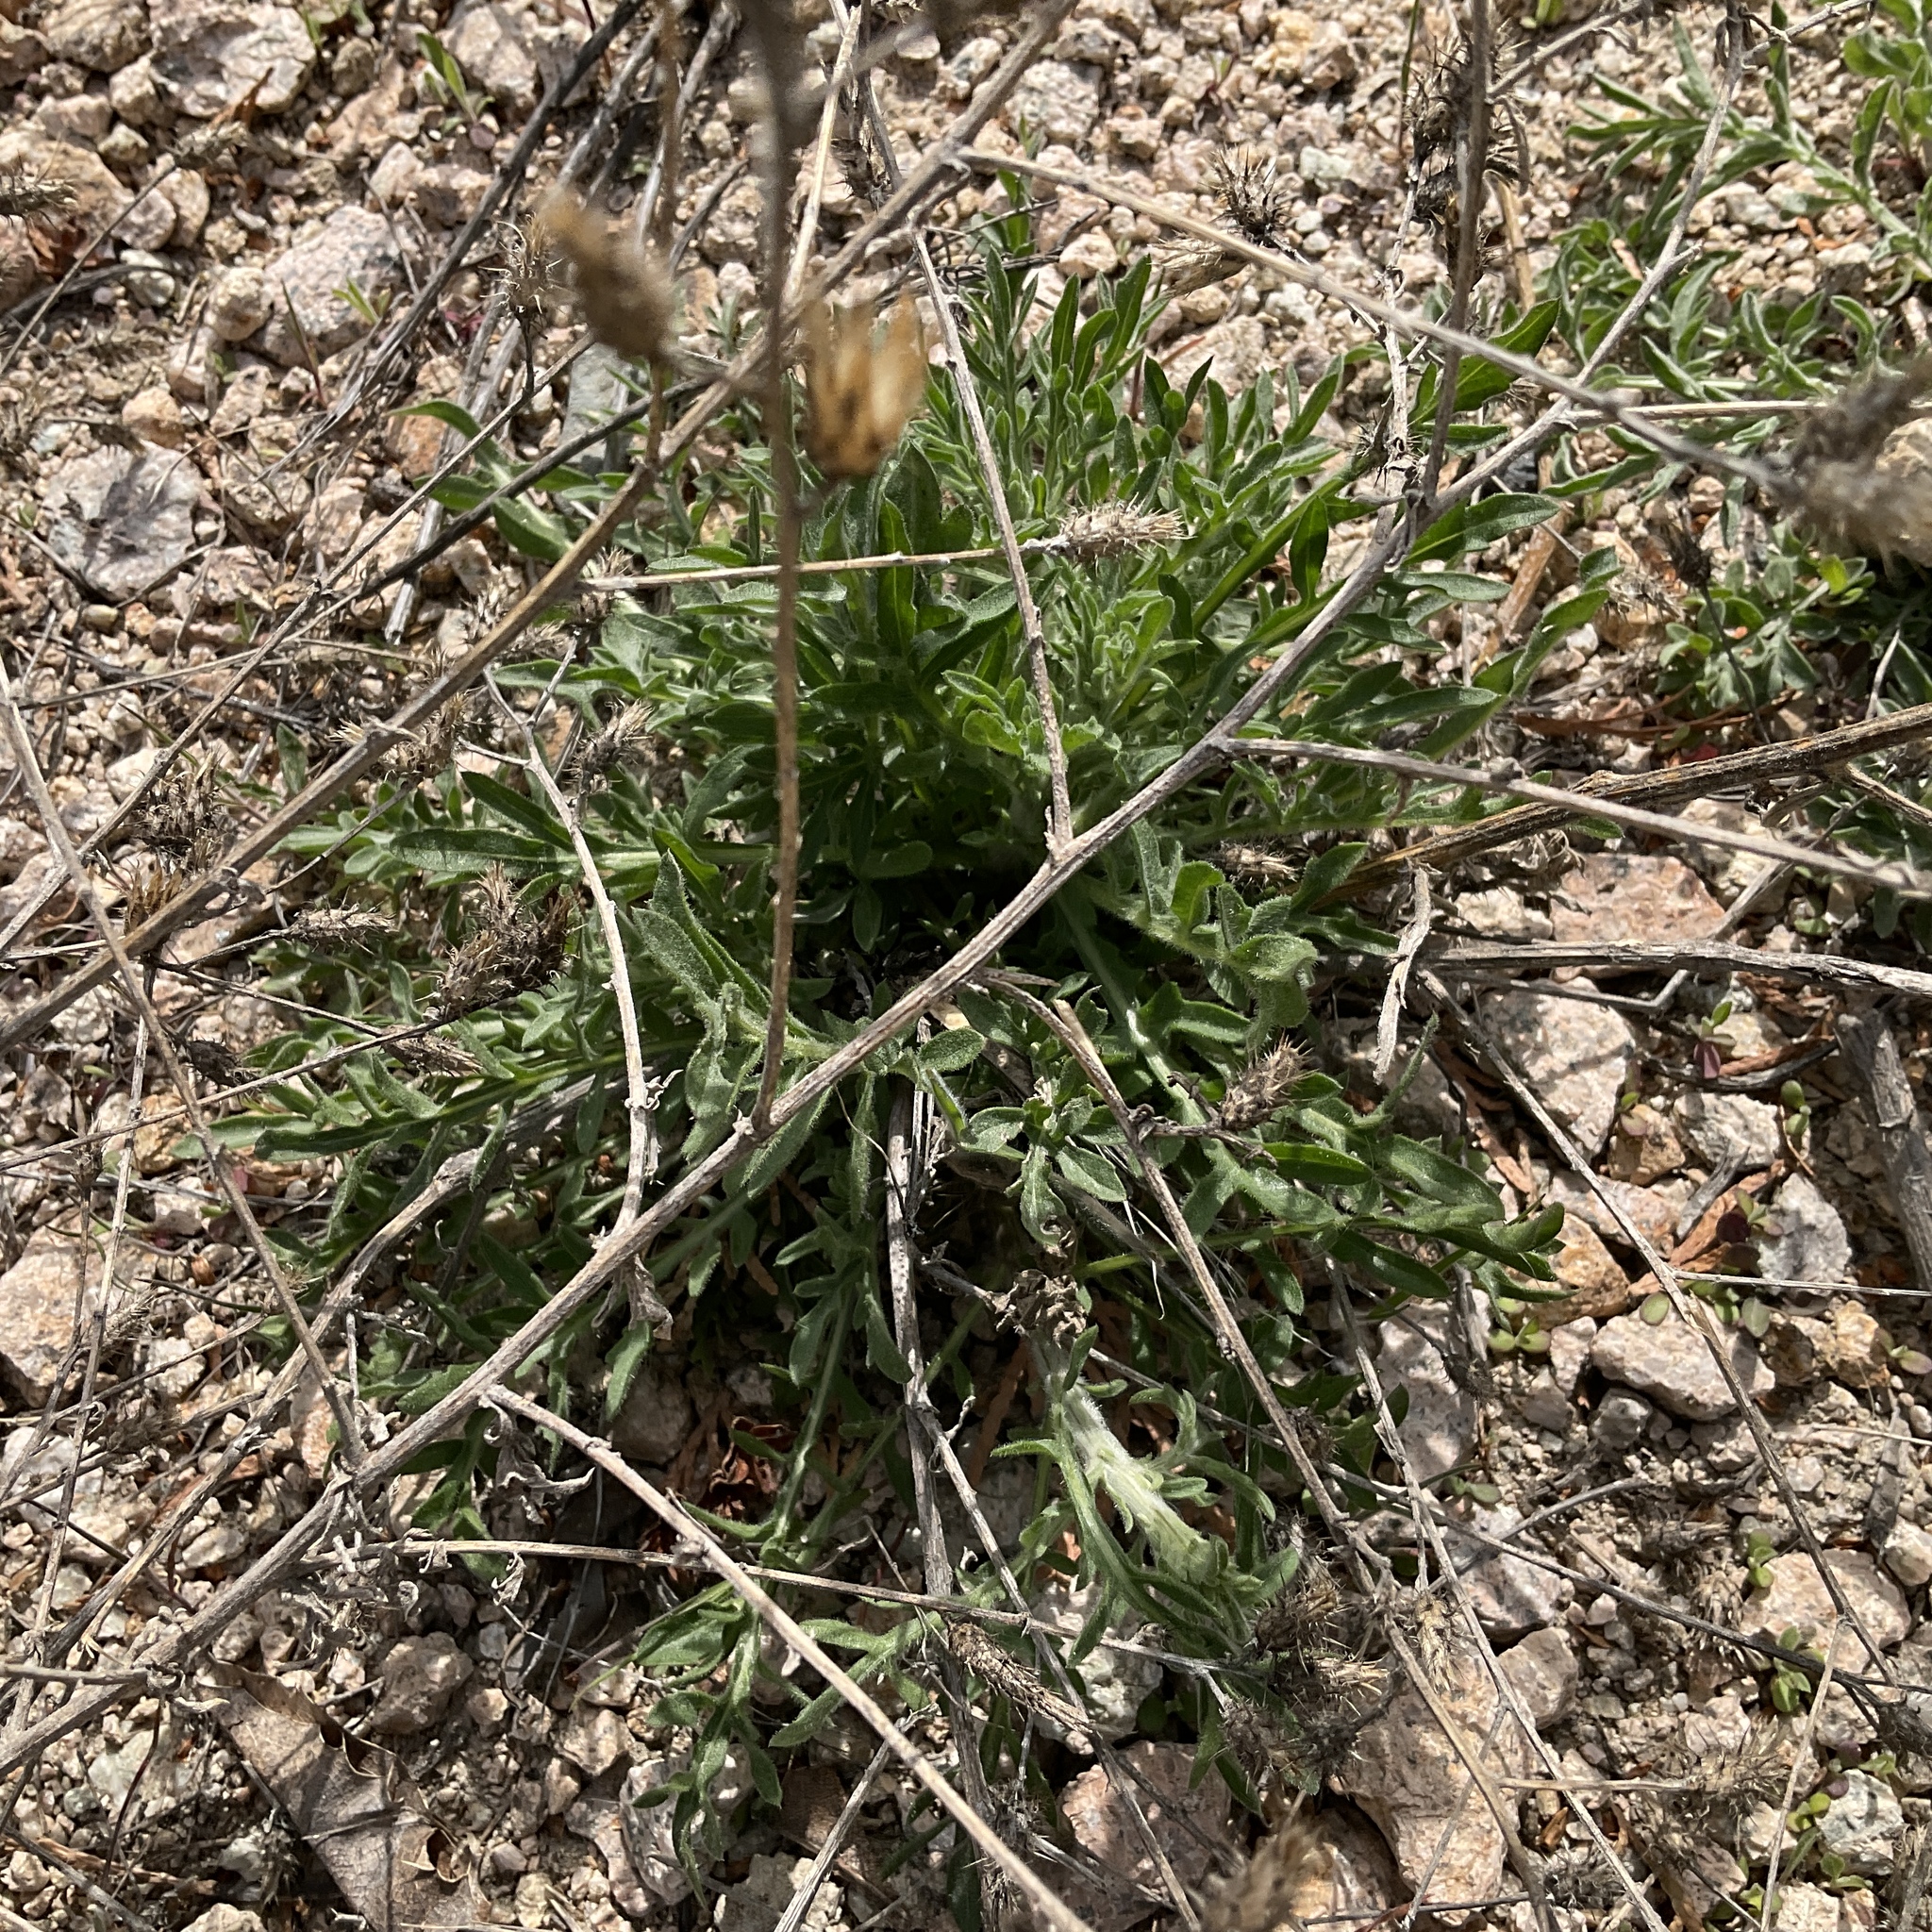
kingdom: Plantae
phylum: Tracheophyta
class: Magnoliopsida
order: Asterales
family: Asteraceae
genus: Centaurea
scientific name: Centaurea diffusa
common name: Diffuse knapweed
